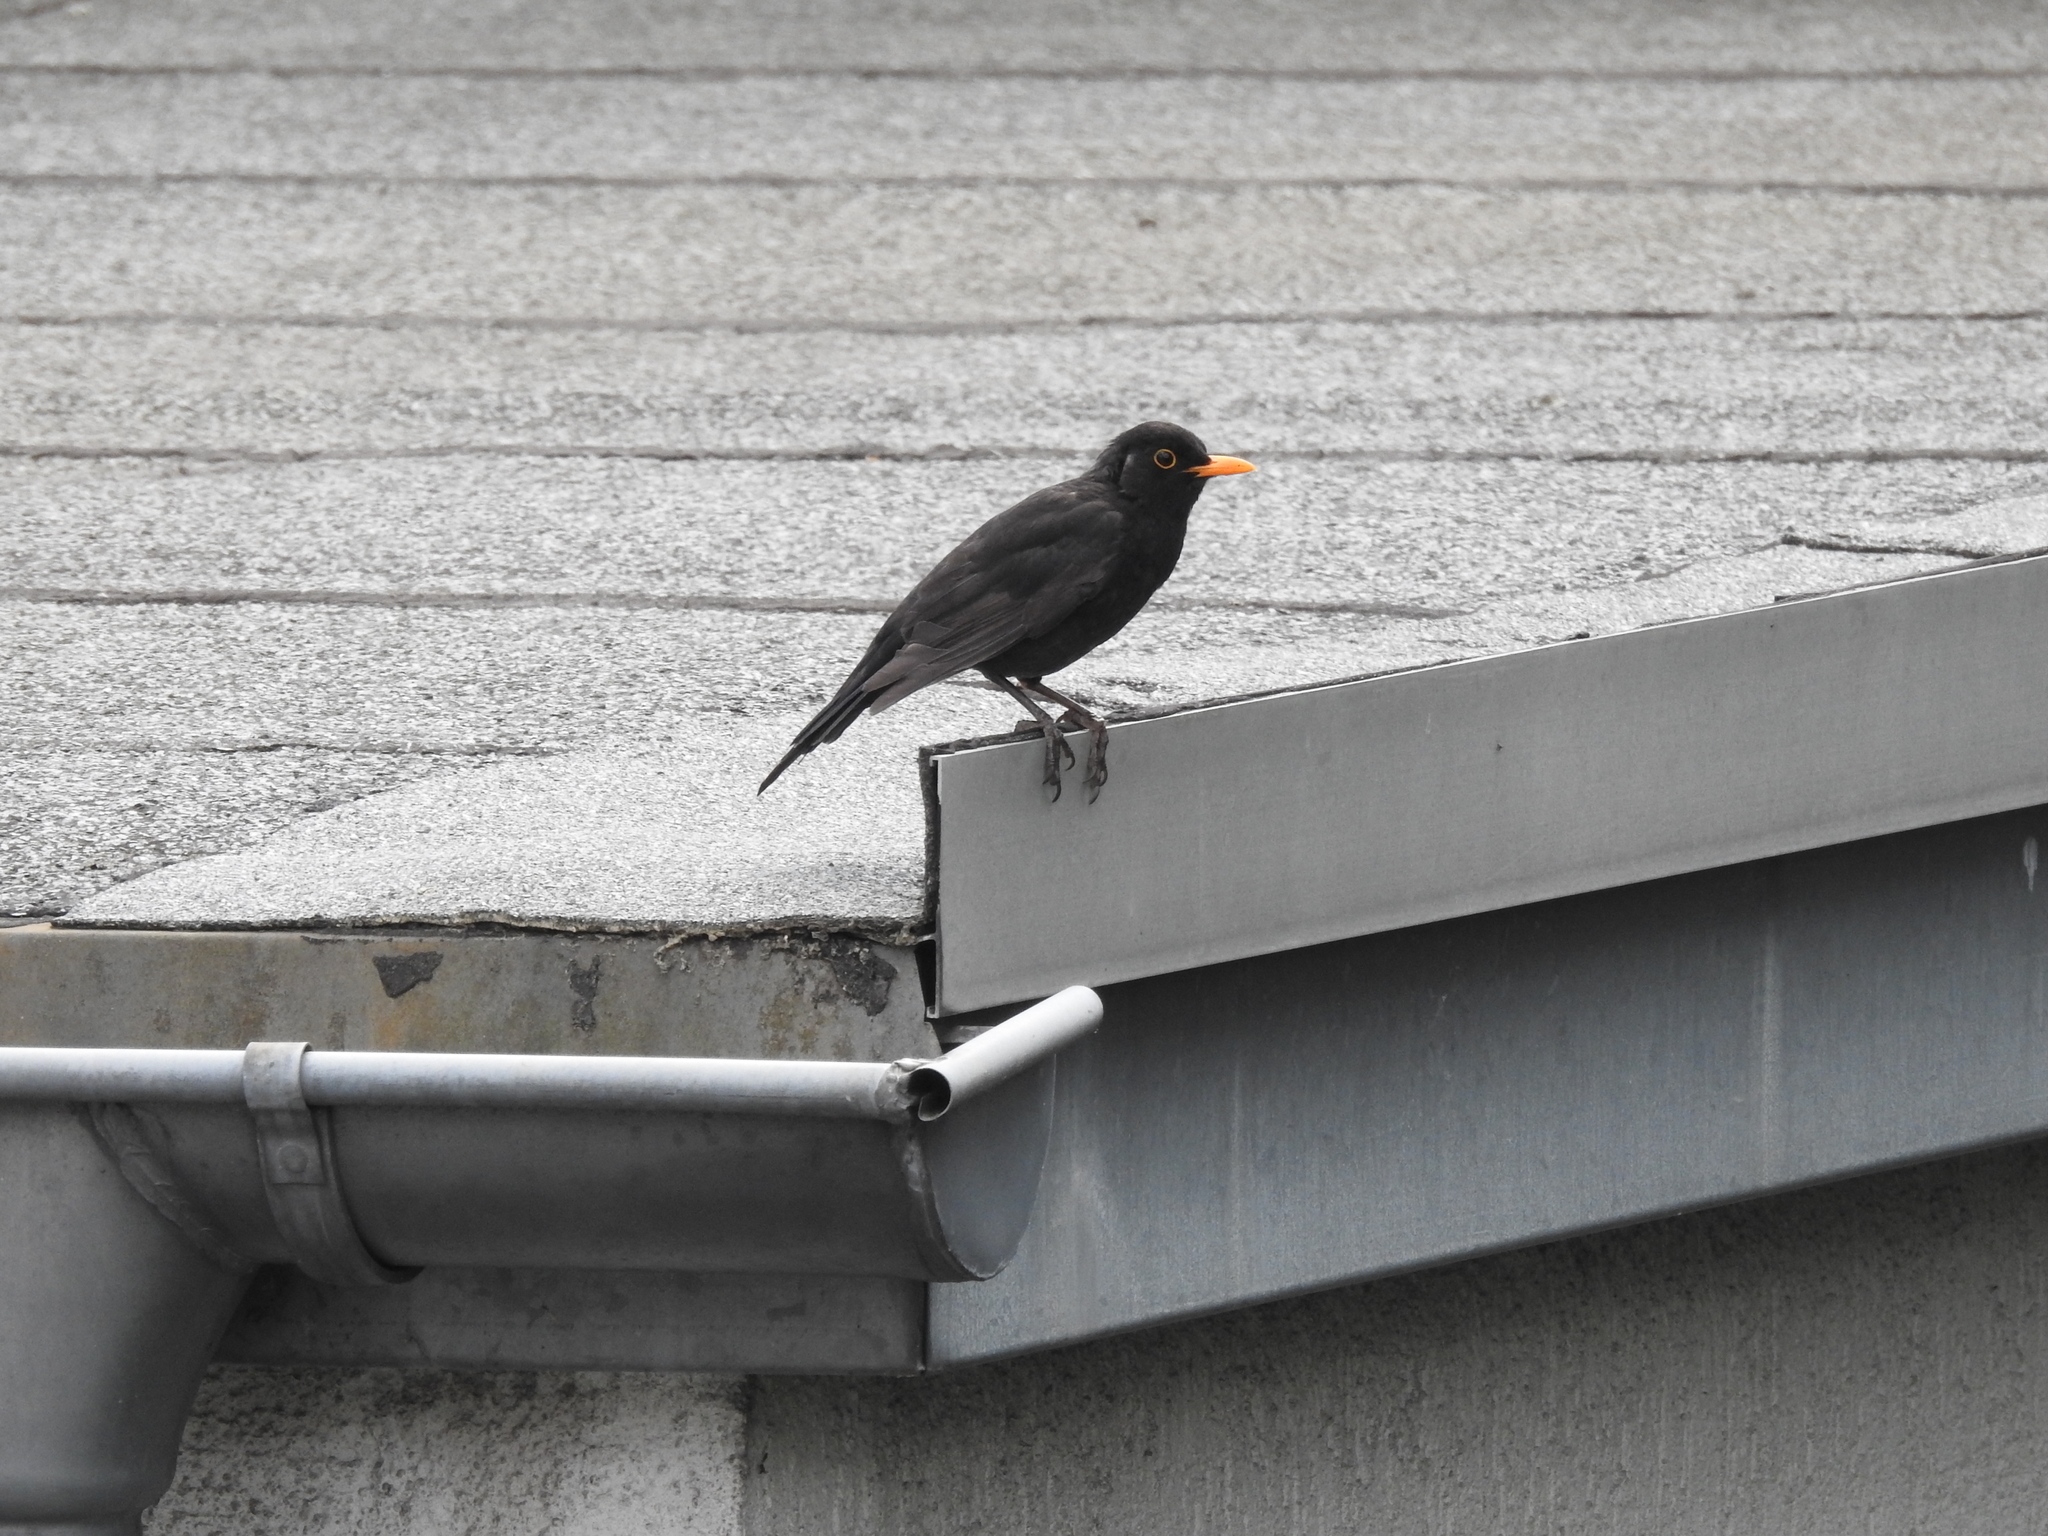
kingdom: Animalia
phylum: Chordata
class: Aves
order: Passeriformes
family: Turdidae
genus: Turdus
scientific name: Turdus merula
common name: Common blackbird
